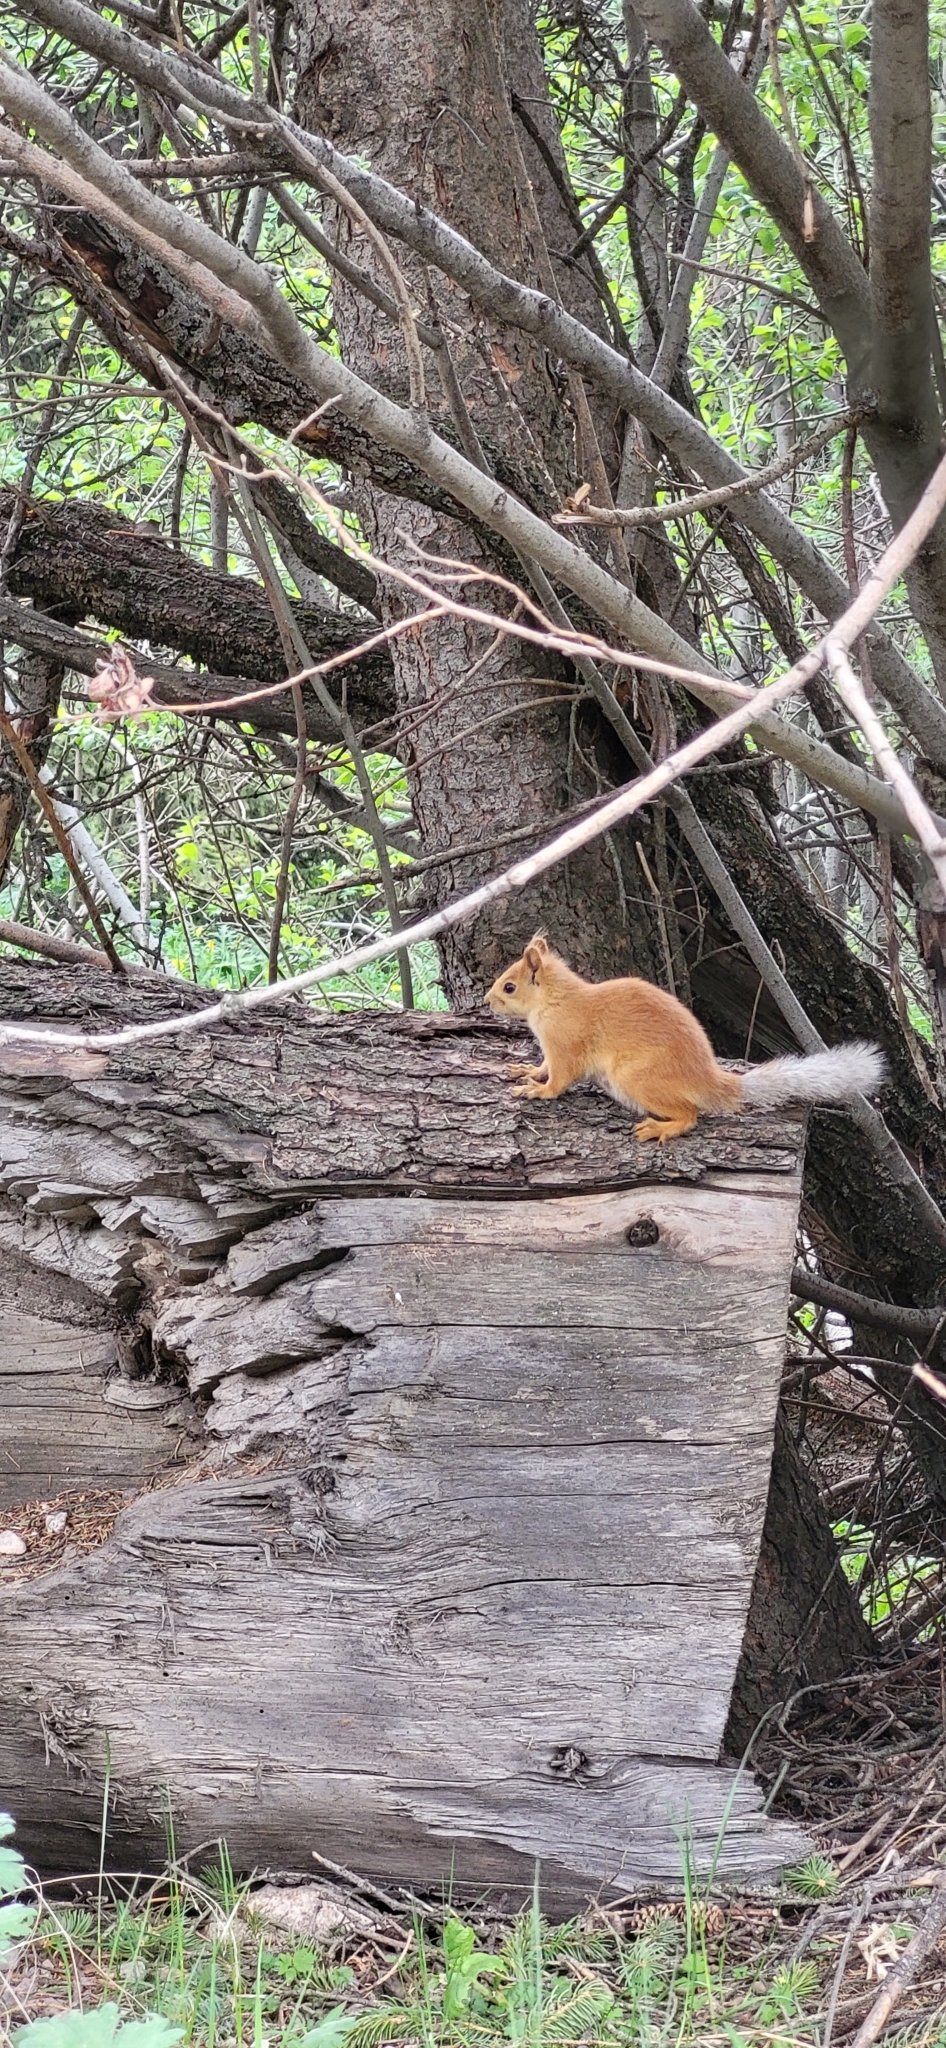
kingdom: Animalia
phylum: Chordata
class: Mammalia
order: Rodentia
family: Sciuridae
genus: Sciurus
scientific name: Sciurus vulgaris
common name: Eurasian red squirrel
